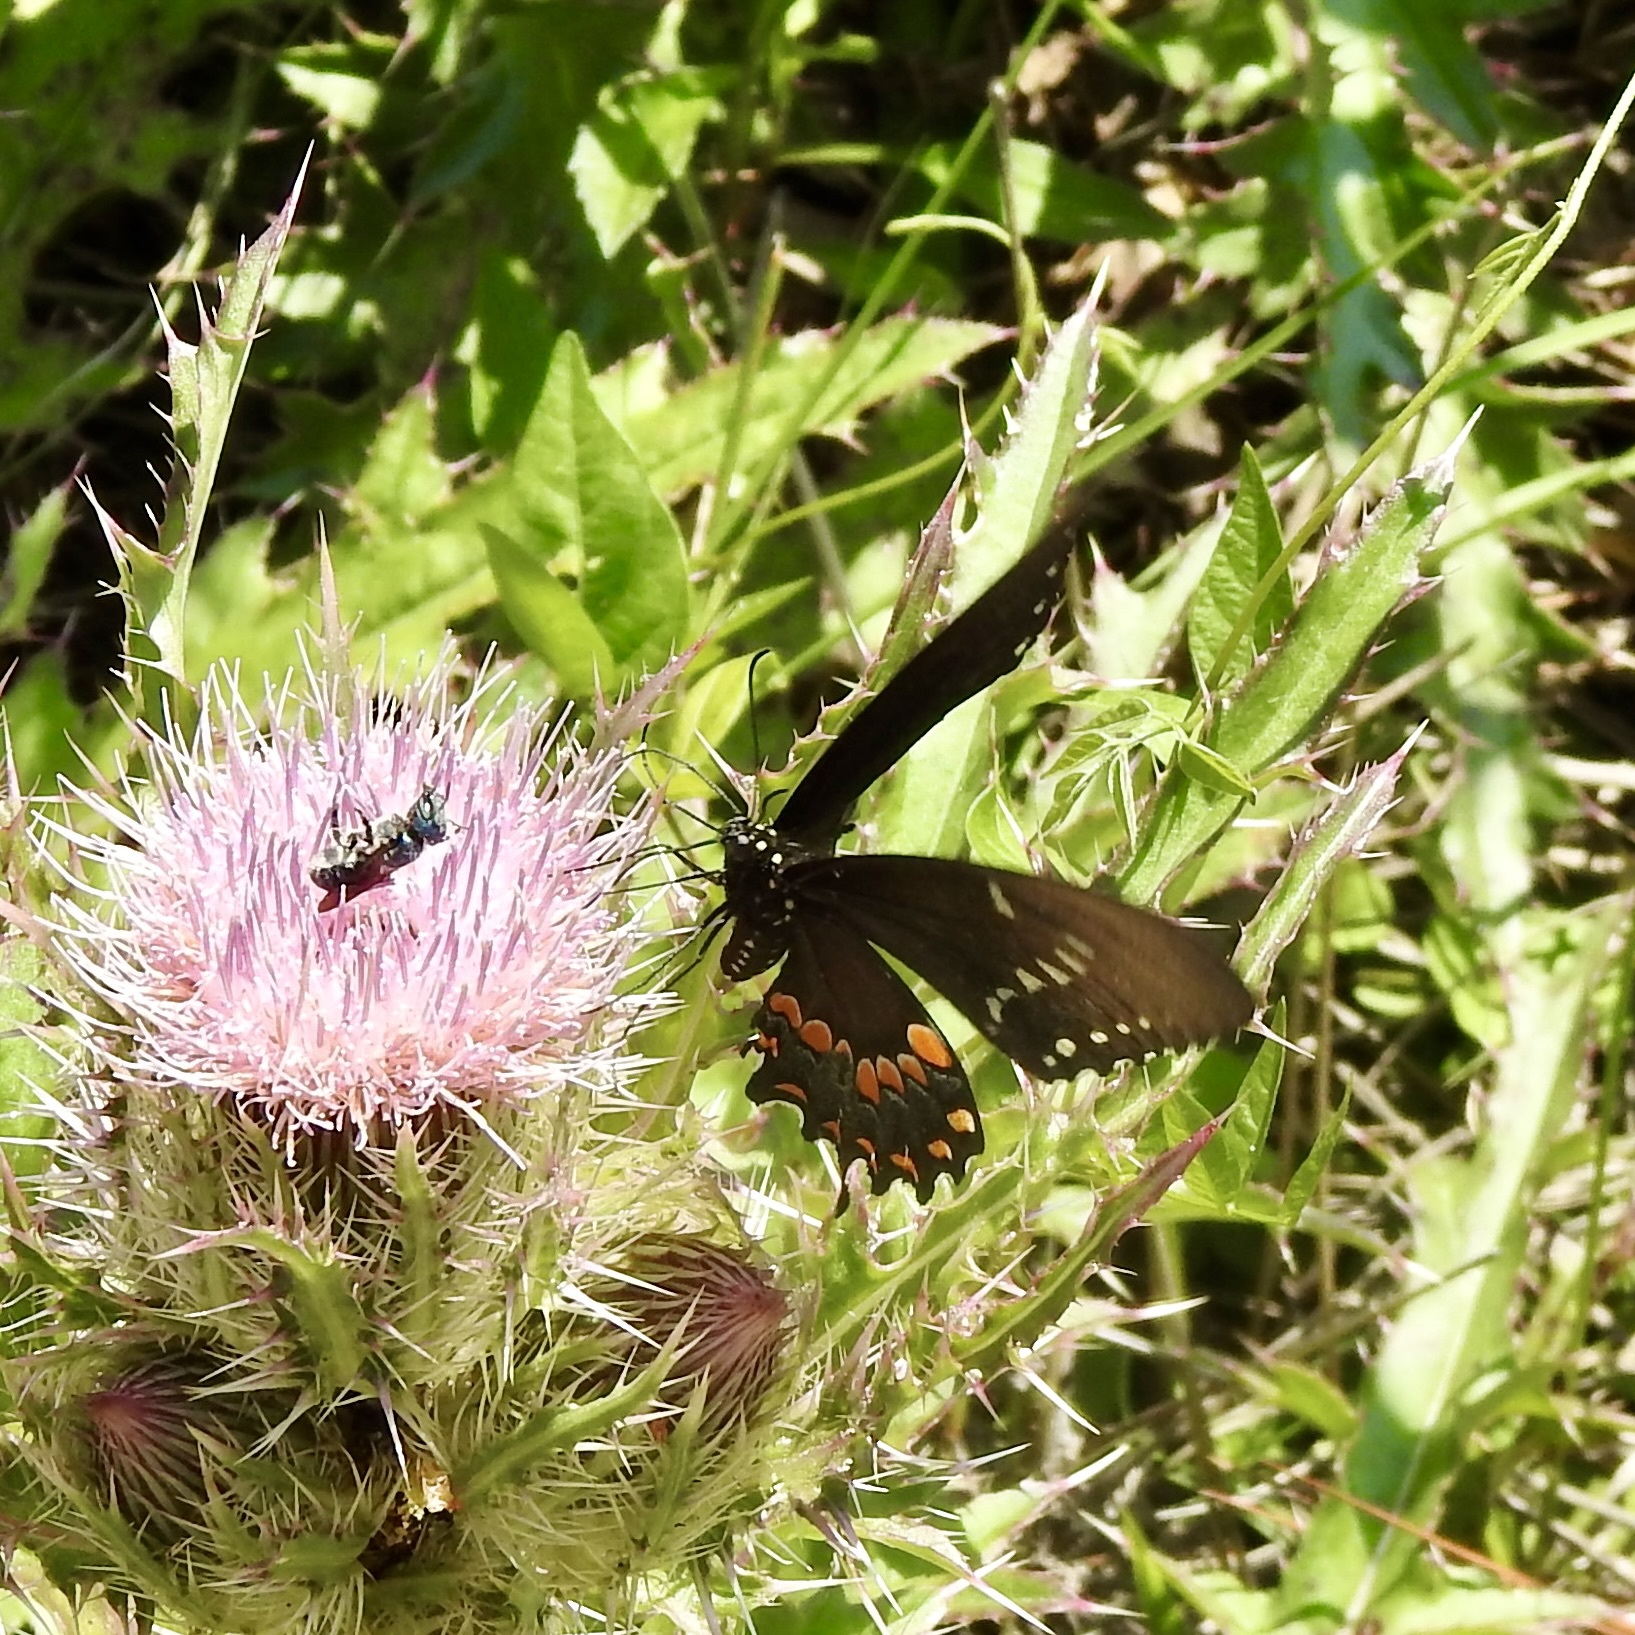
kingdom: Animalia
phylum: Arthropoda
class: Insecta
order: Lepidoptera
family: Papilionidae
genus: Battus
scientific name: Battus philenor
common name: Pipevine swallowtail
